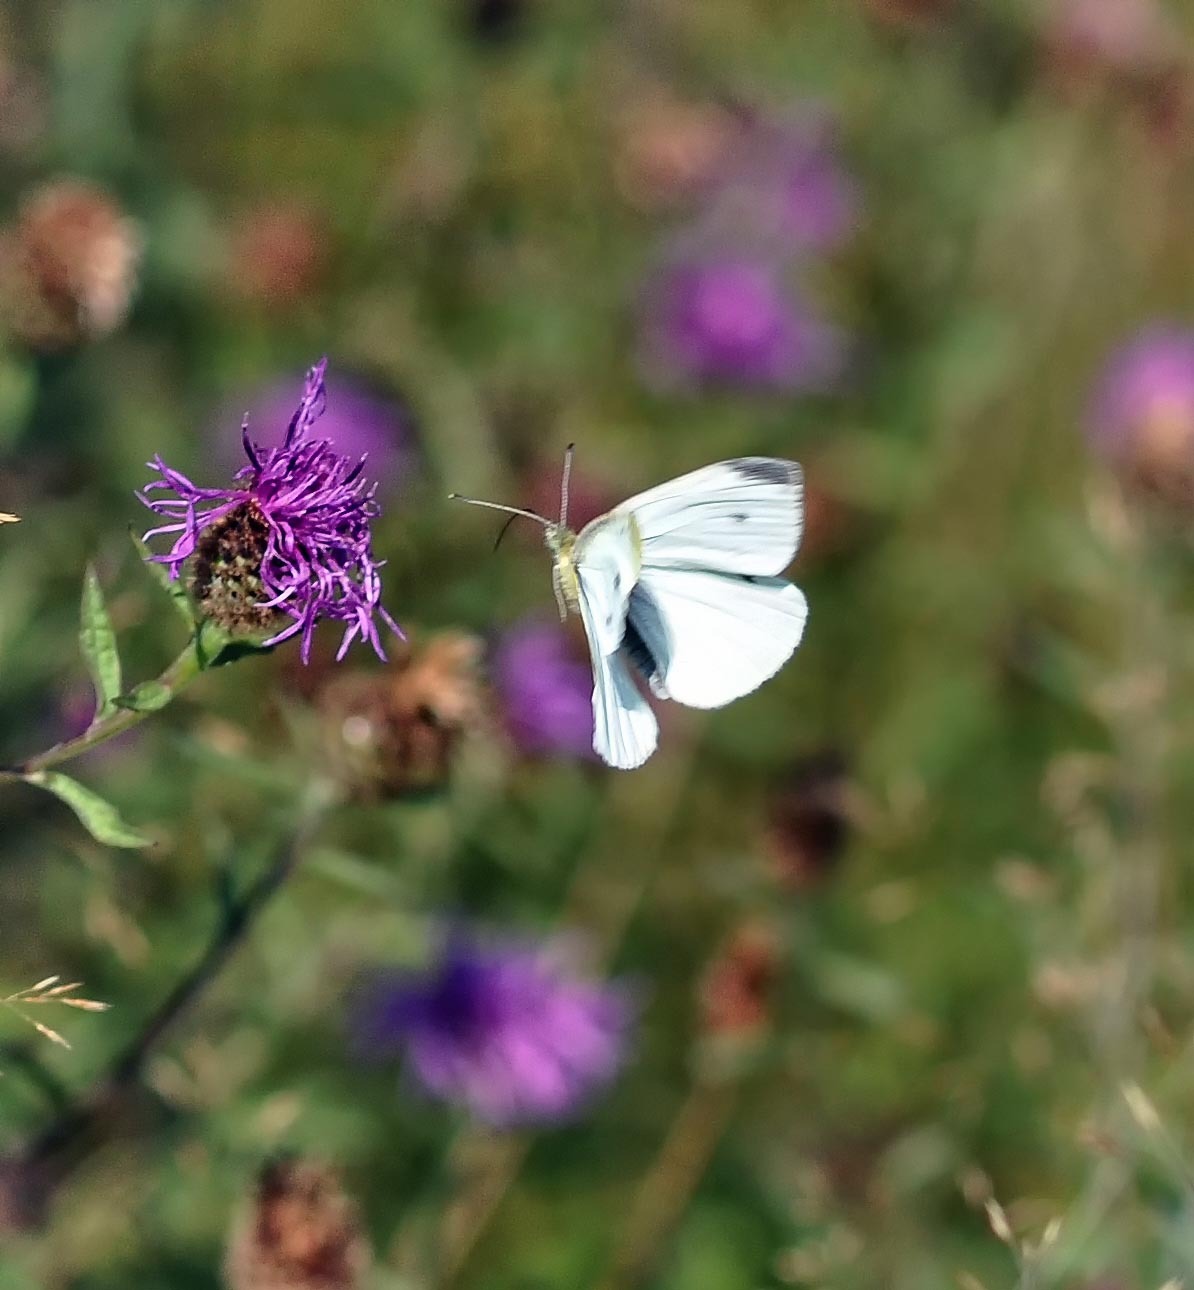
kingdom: Animalia
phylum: Arthropoda
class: Insecta
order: Lepidoptera
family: Pieridae
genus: Pieris
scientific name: Pieris rapae
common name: Small white
